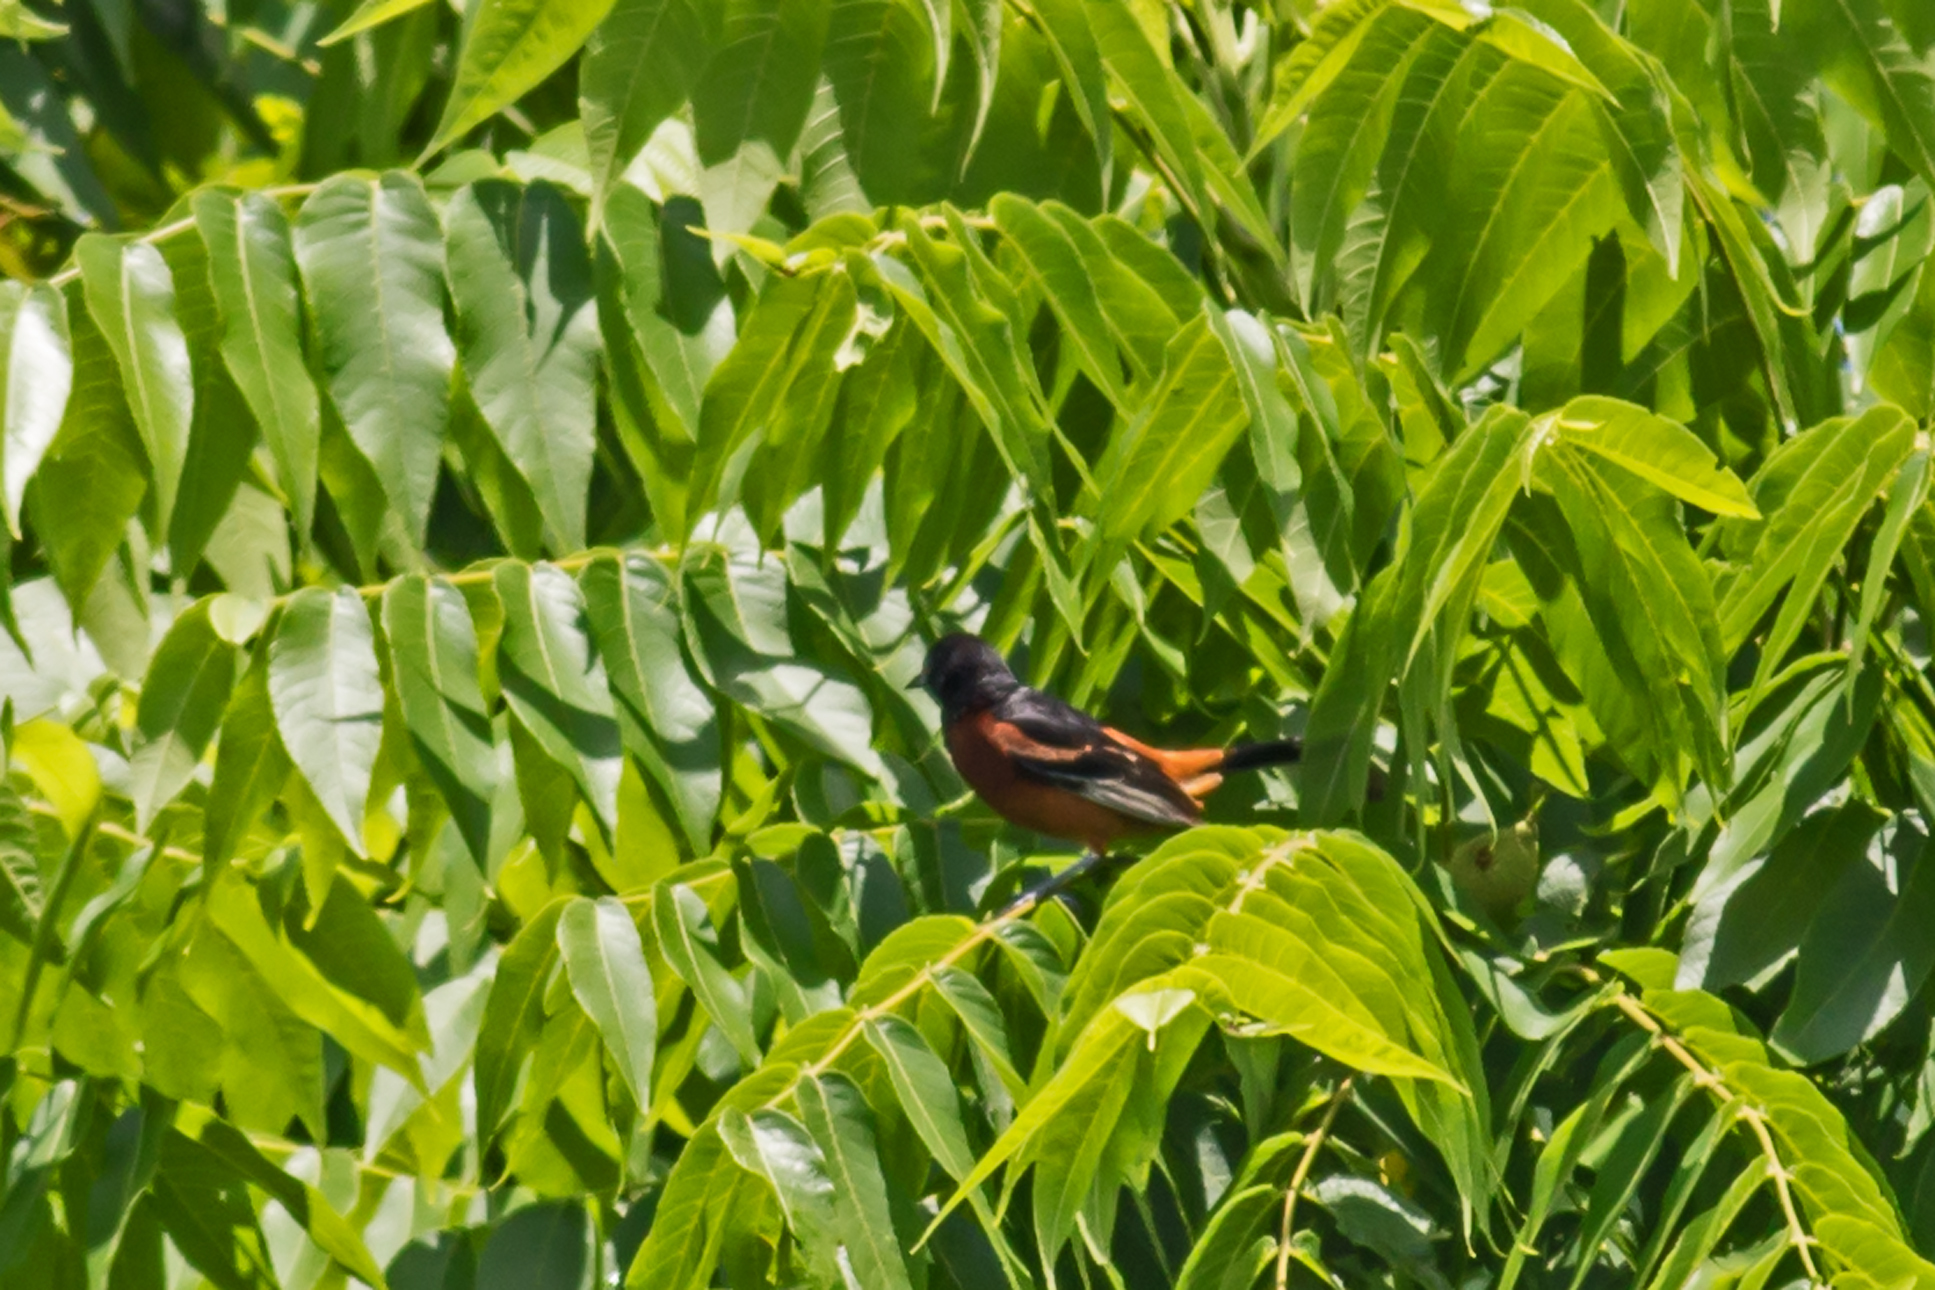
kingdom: Animalia
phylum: Chordata
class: Aves
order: Passeriformes
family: Icteridae
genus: Icterus
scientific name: Icterus spurius
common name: Orchard oriole
